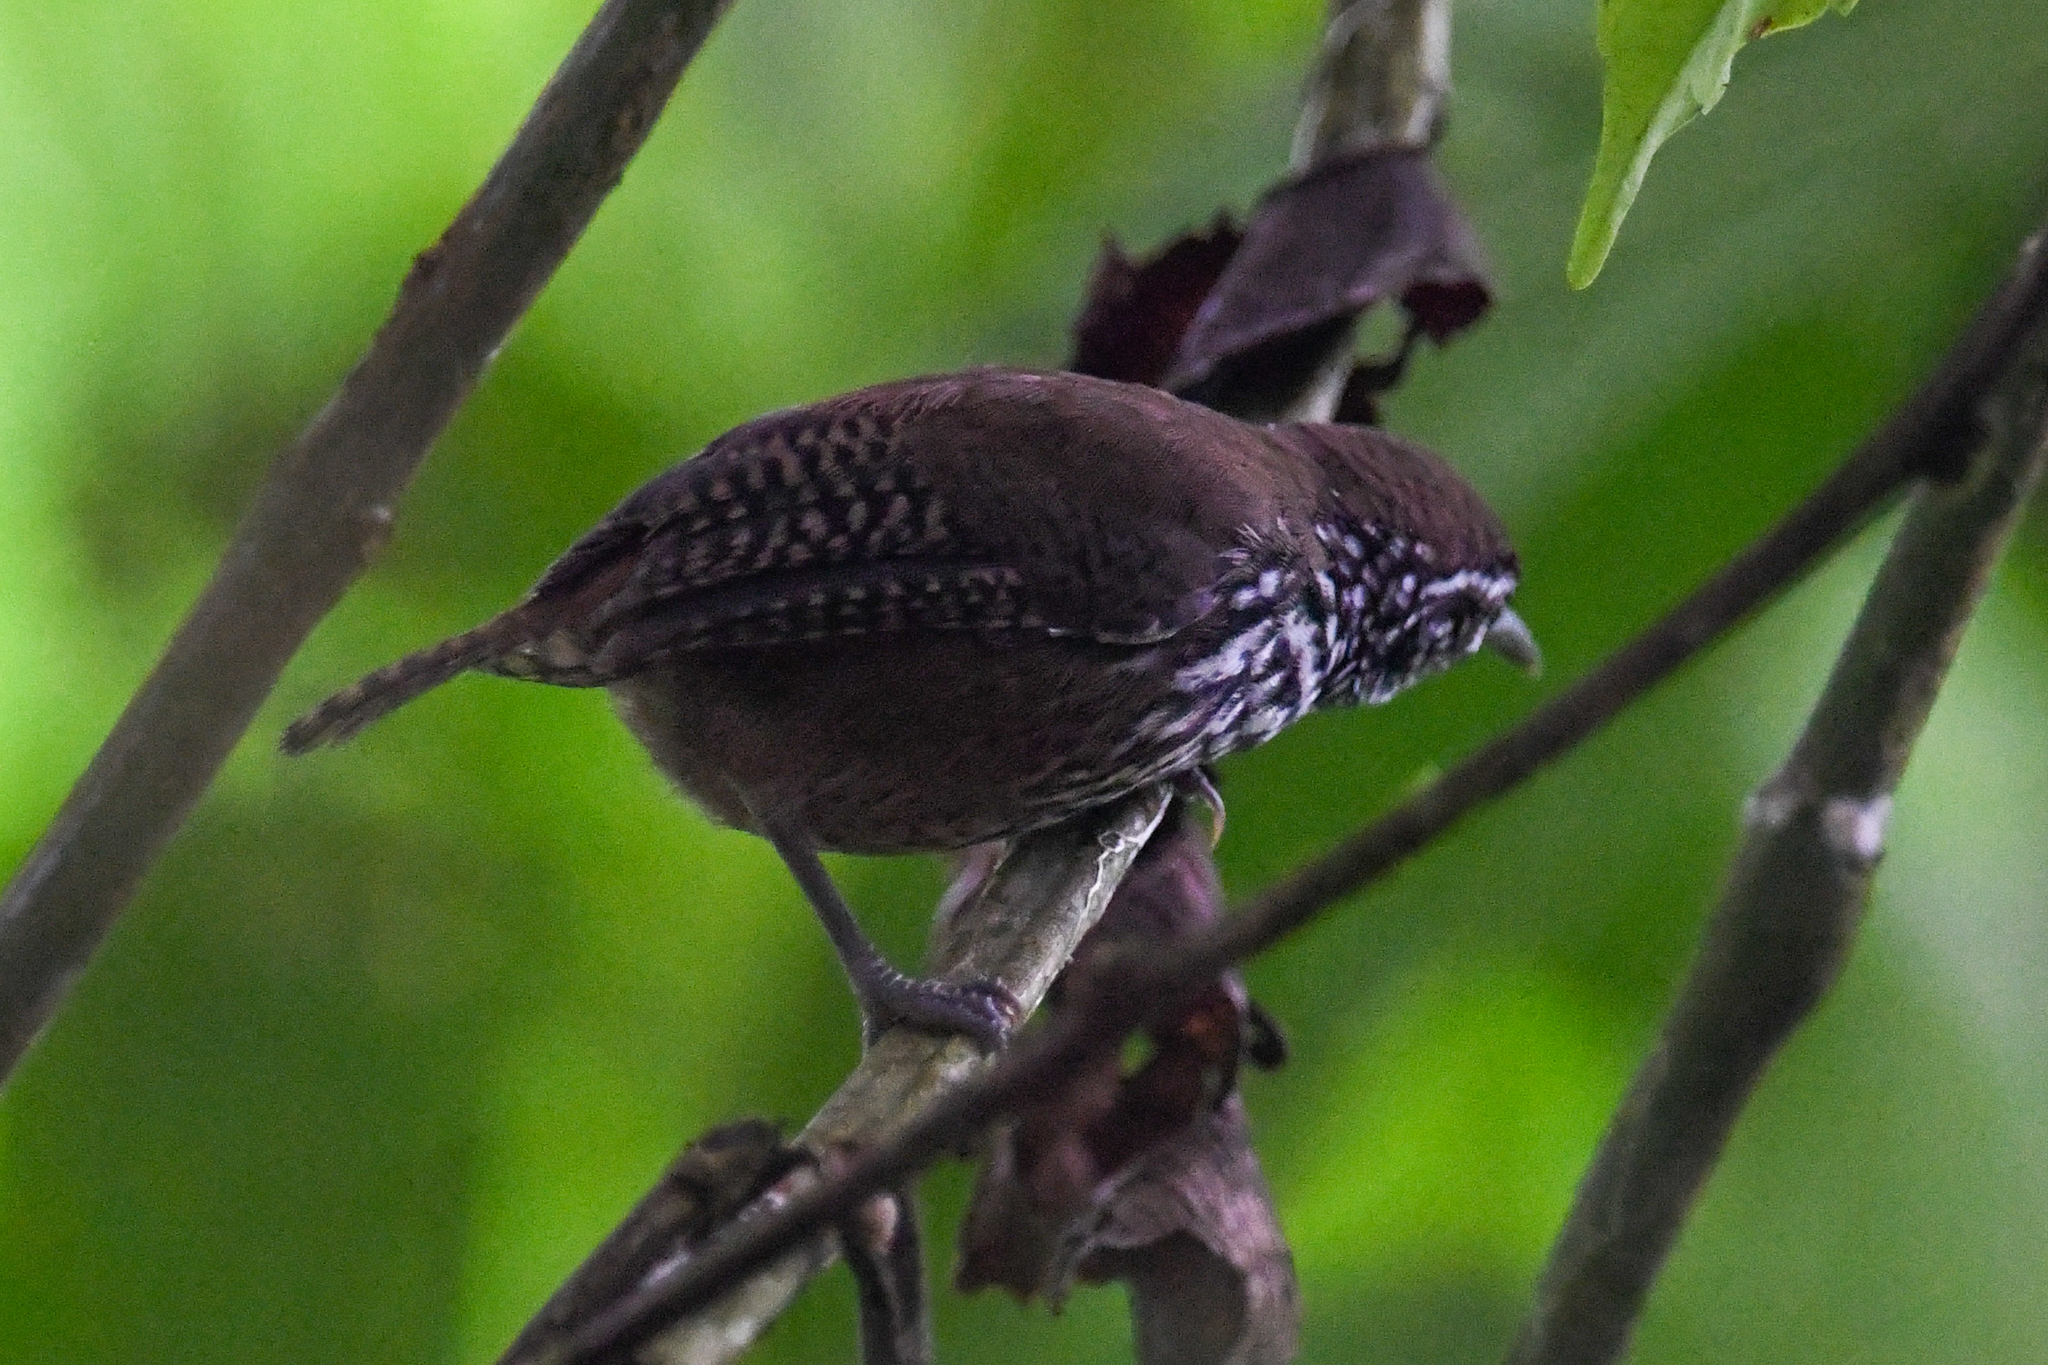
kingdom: Animalia
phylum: Chordata
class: Aves
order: Passeriformes
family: Troglodytidae
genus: Cantorchilus
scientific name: Cantorchilus thoracicus
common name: Stripe-breasted wren
